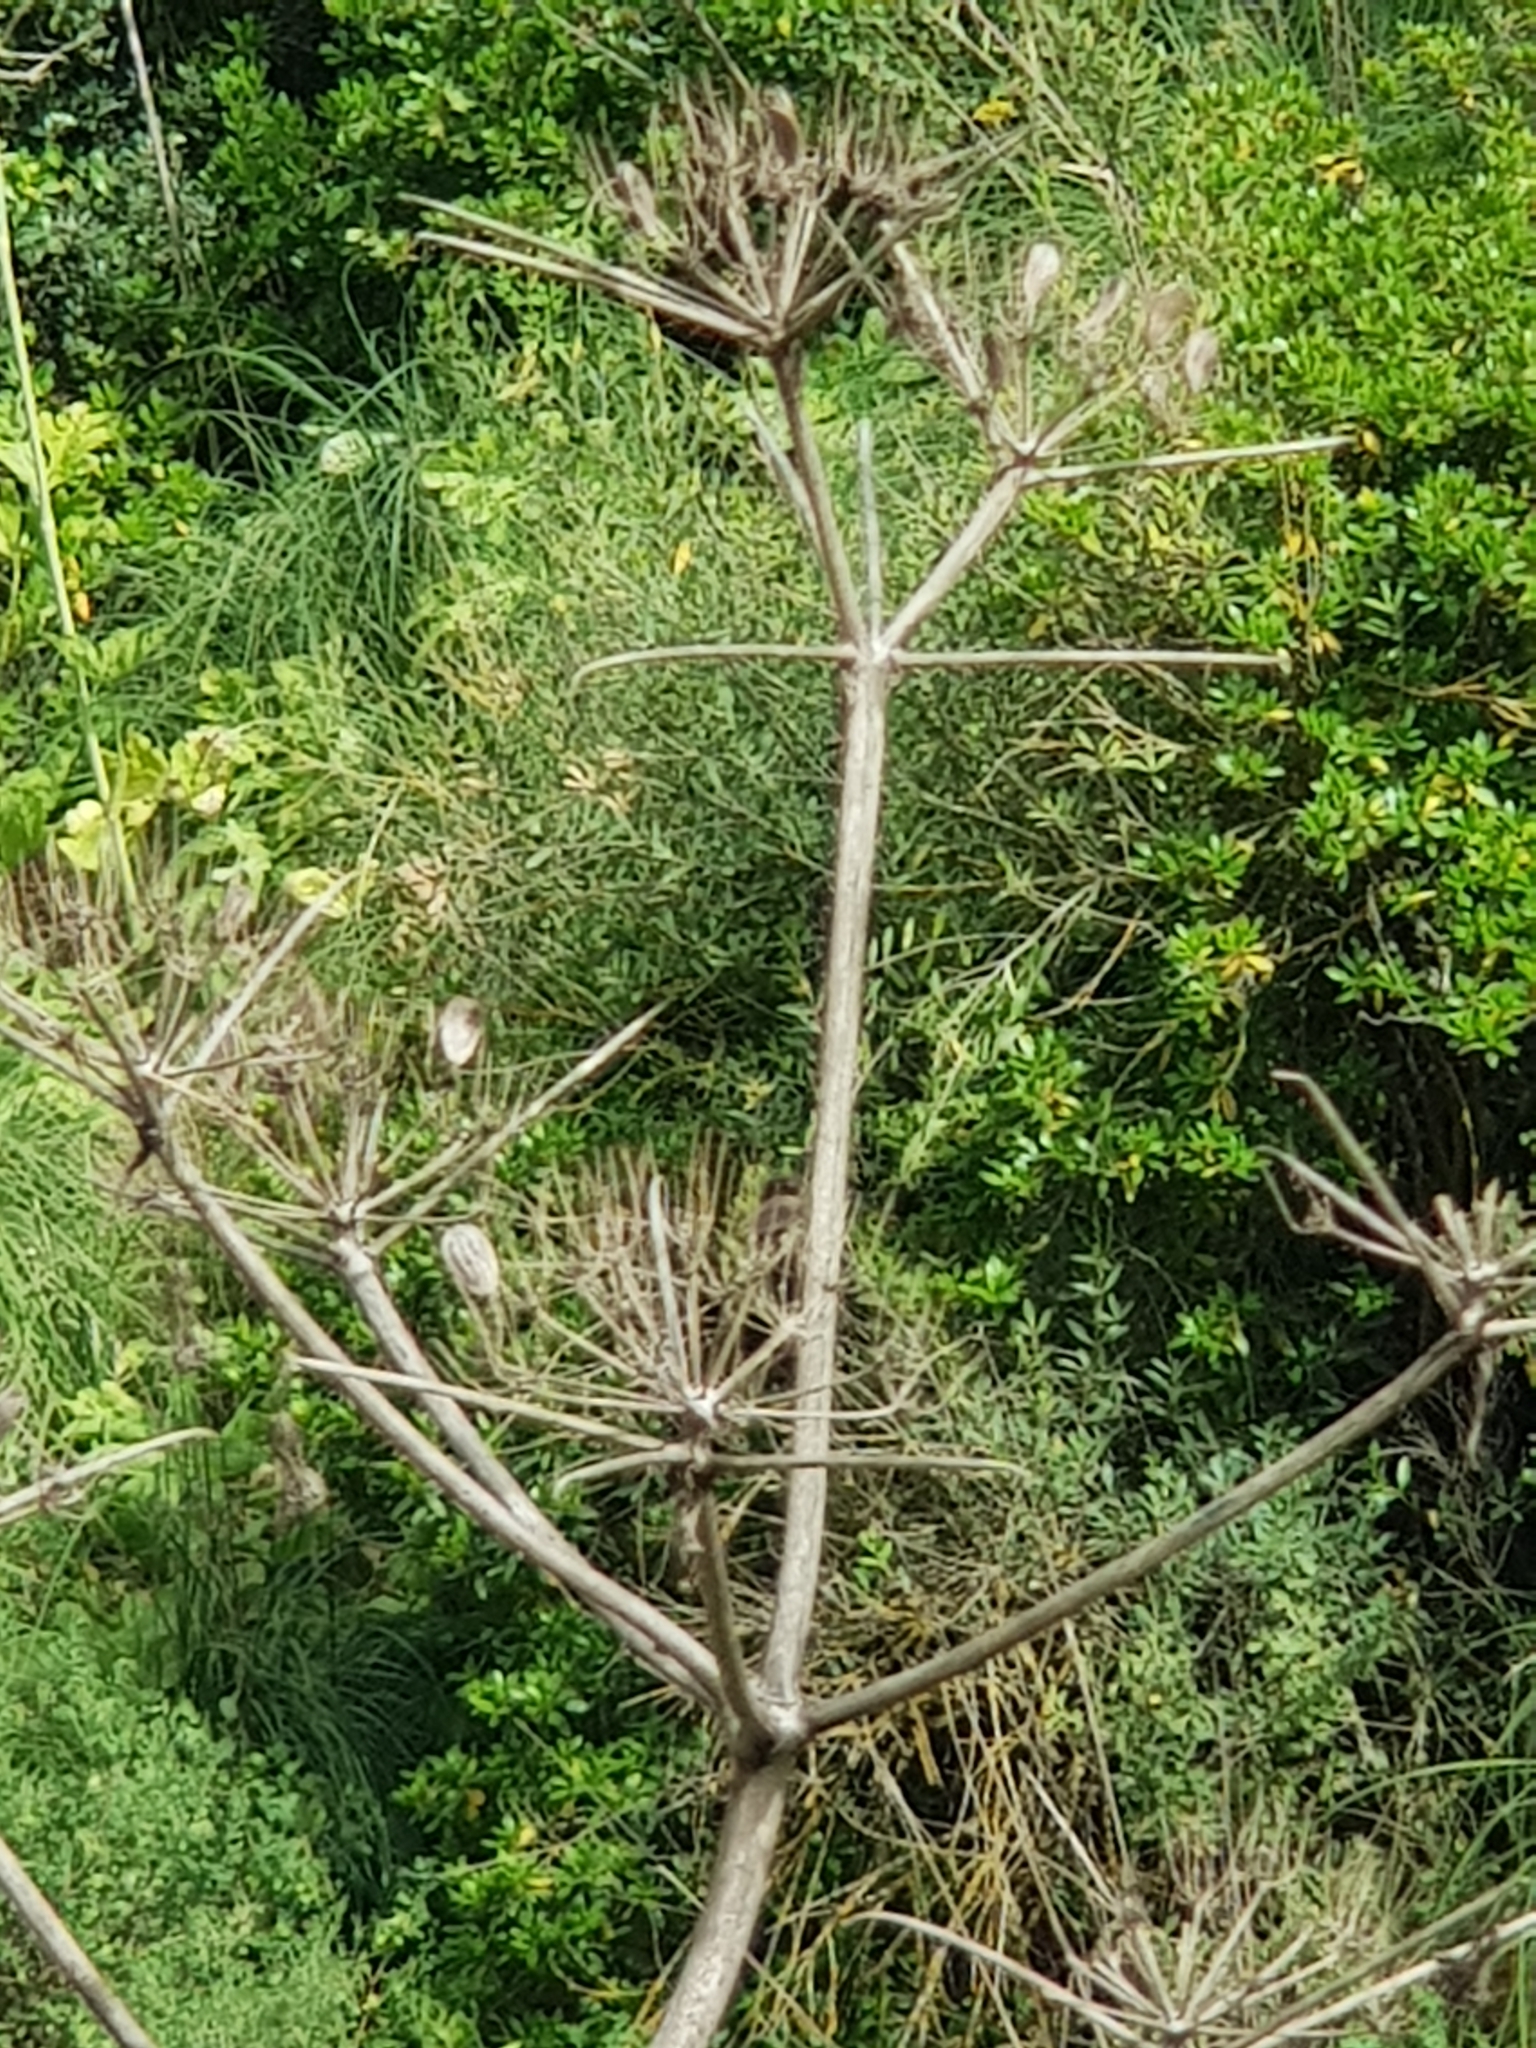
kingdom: Plantae
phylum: Tracheophyta
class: Magnoliopsida
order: Apiales
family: Apiaceae
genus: Magydaris
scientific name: Magydaris pastinacea
